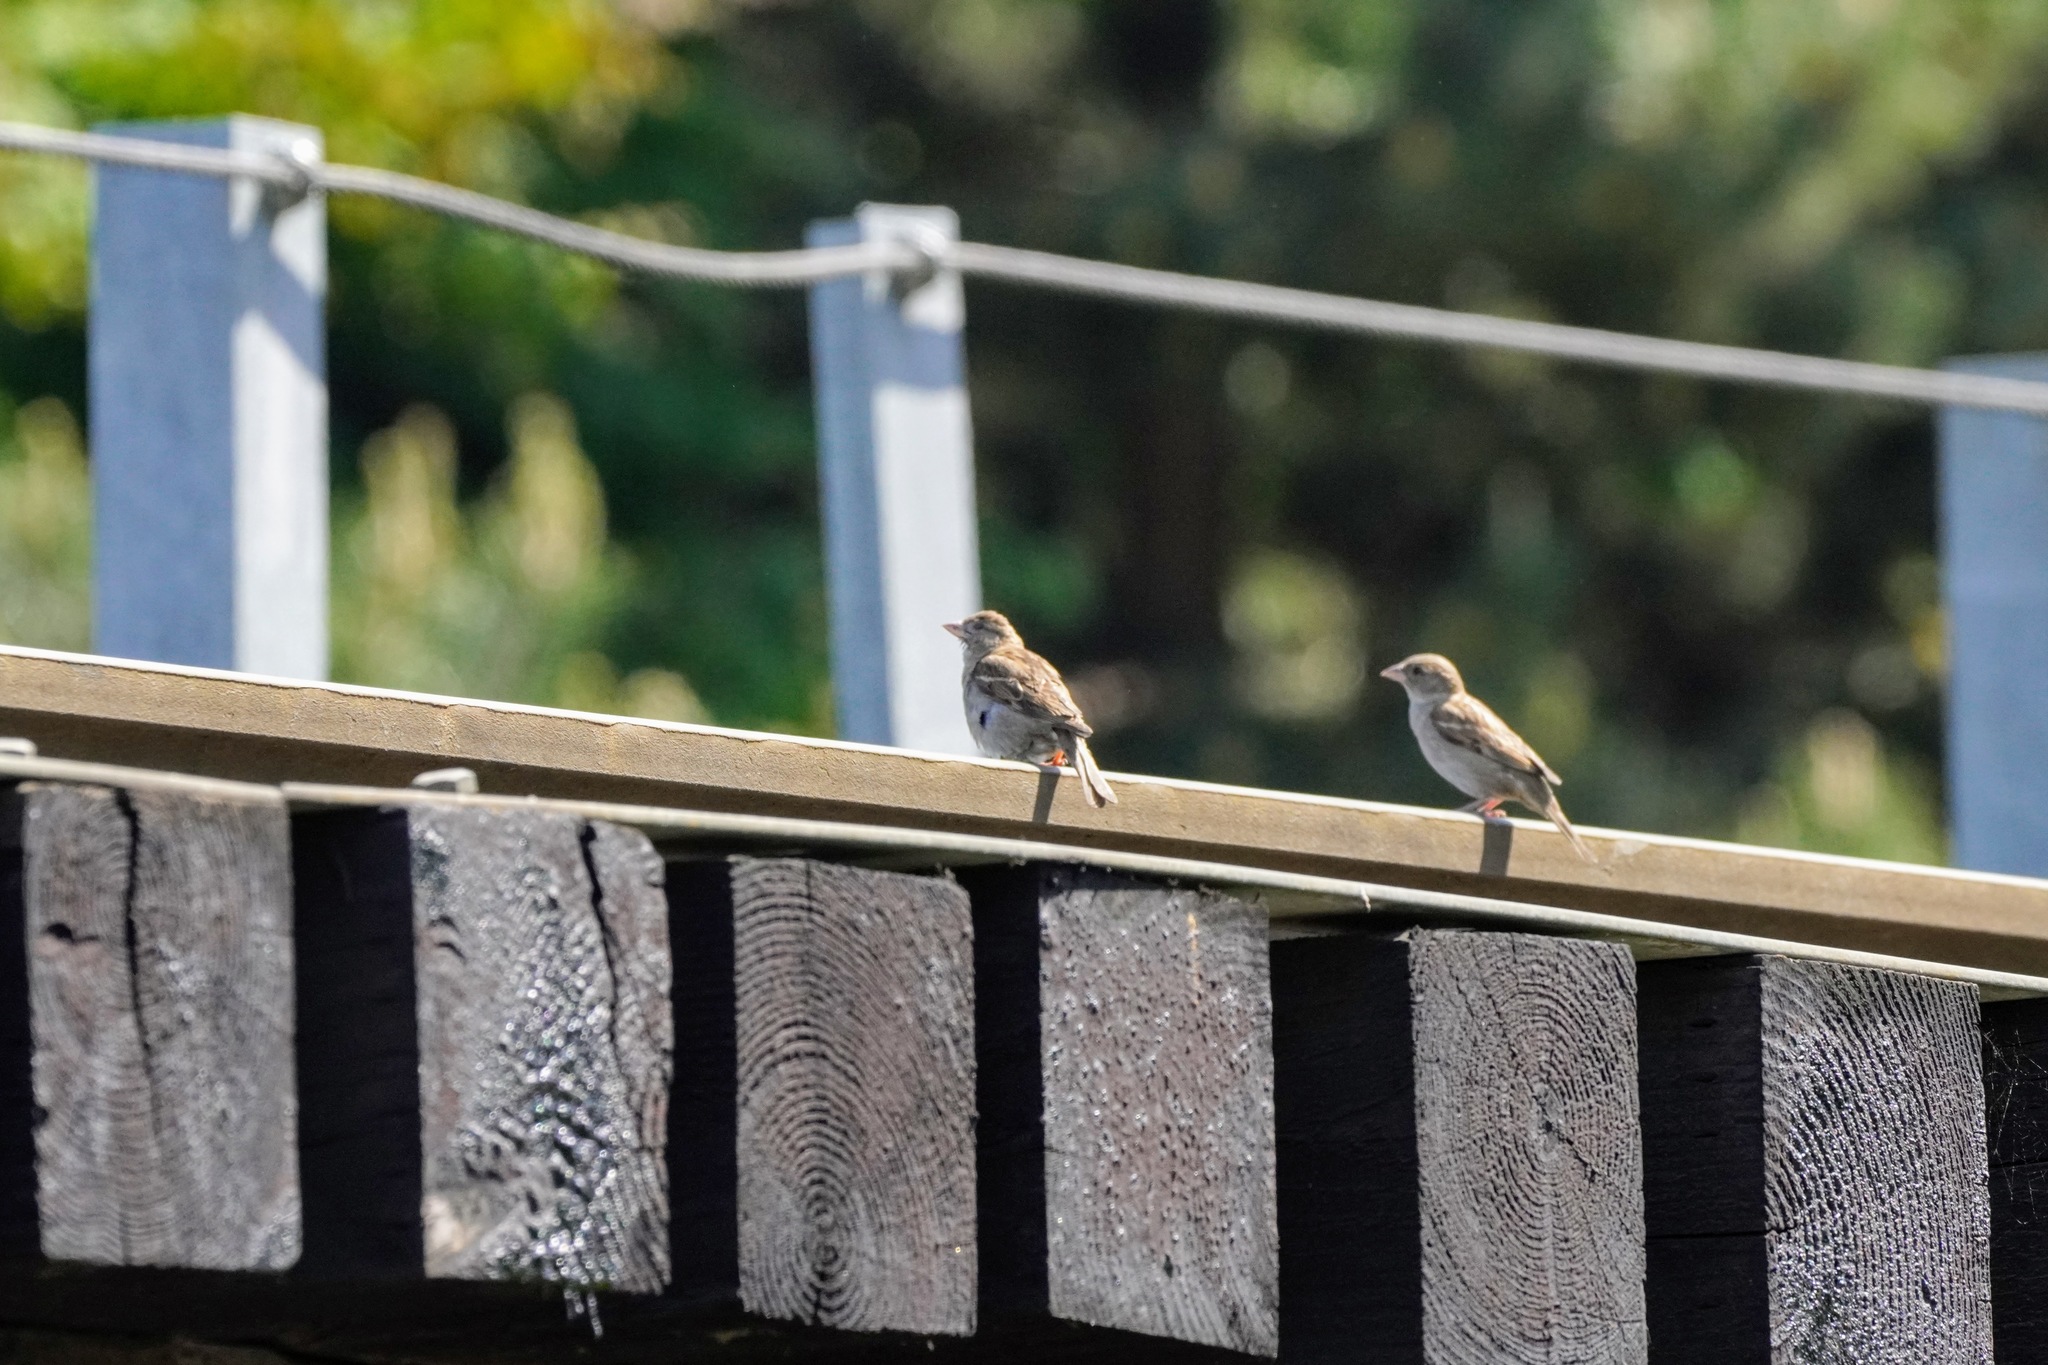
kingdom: Animalia
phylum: Chordata
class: Aves
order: Passeriformes
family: Passeridae
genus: Passer
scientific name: Passer domesticus
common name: House sparrow
